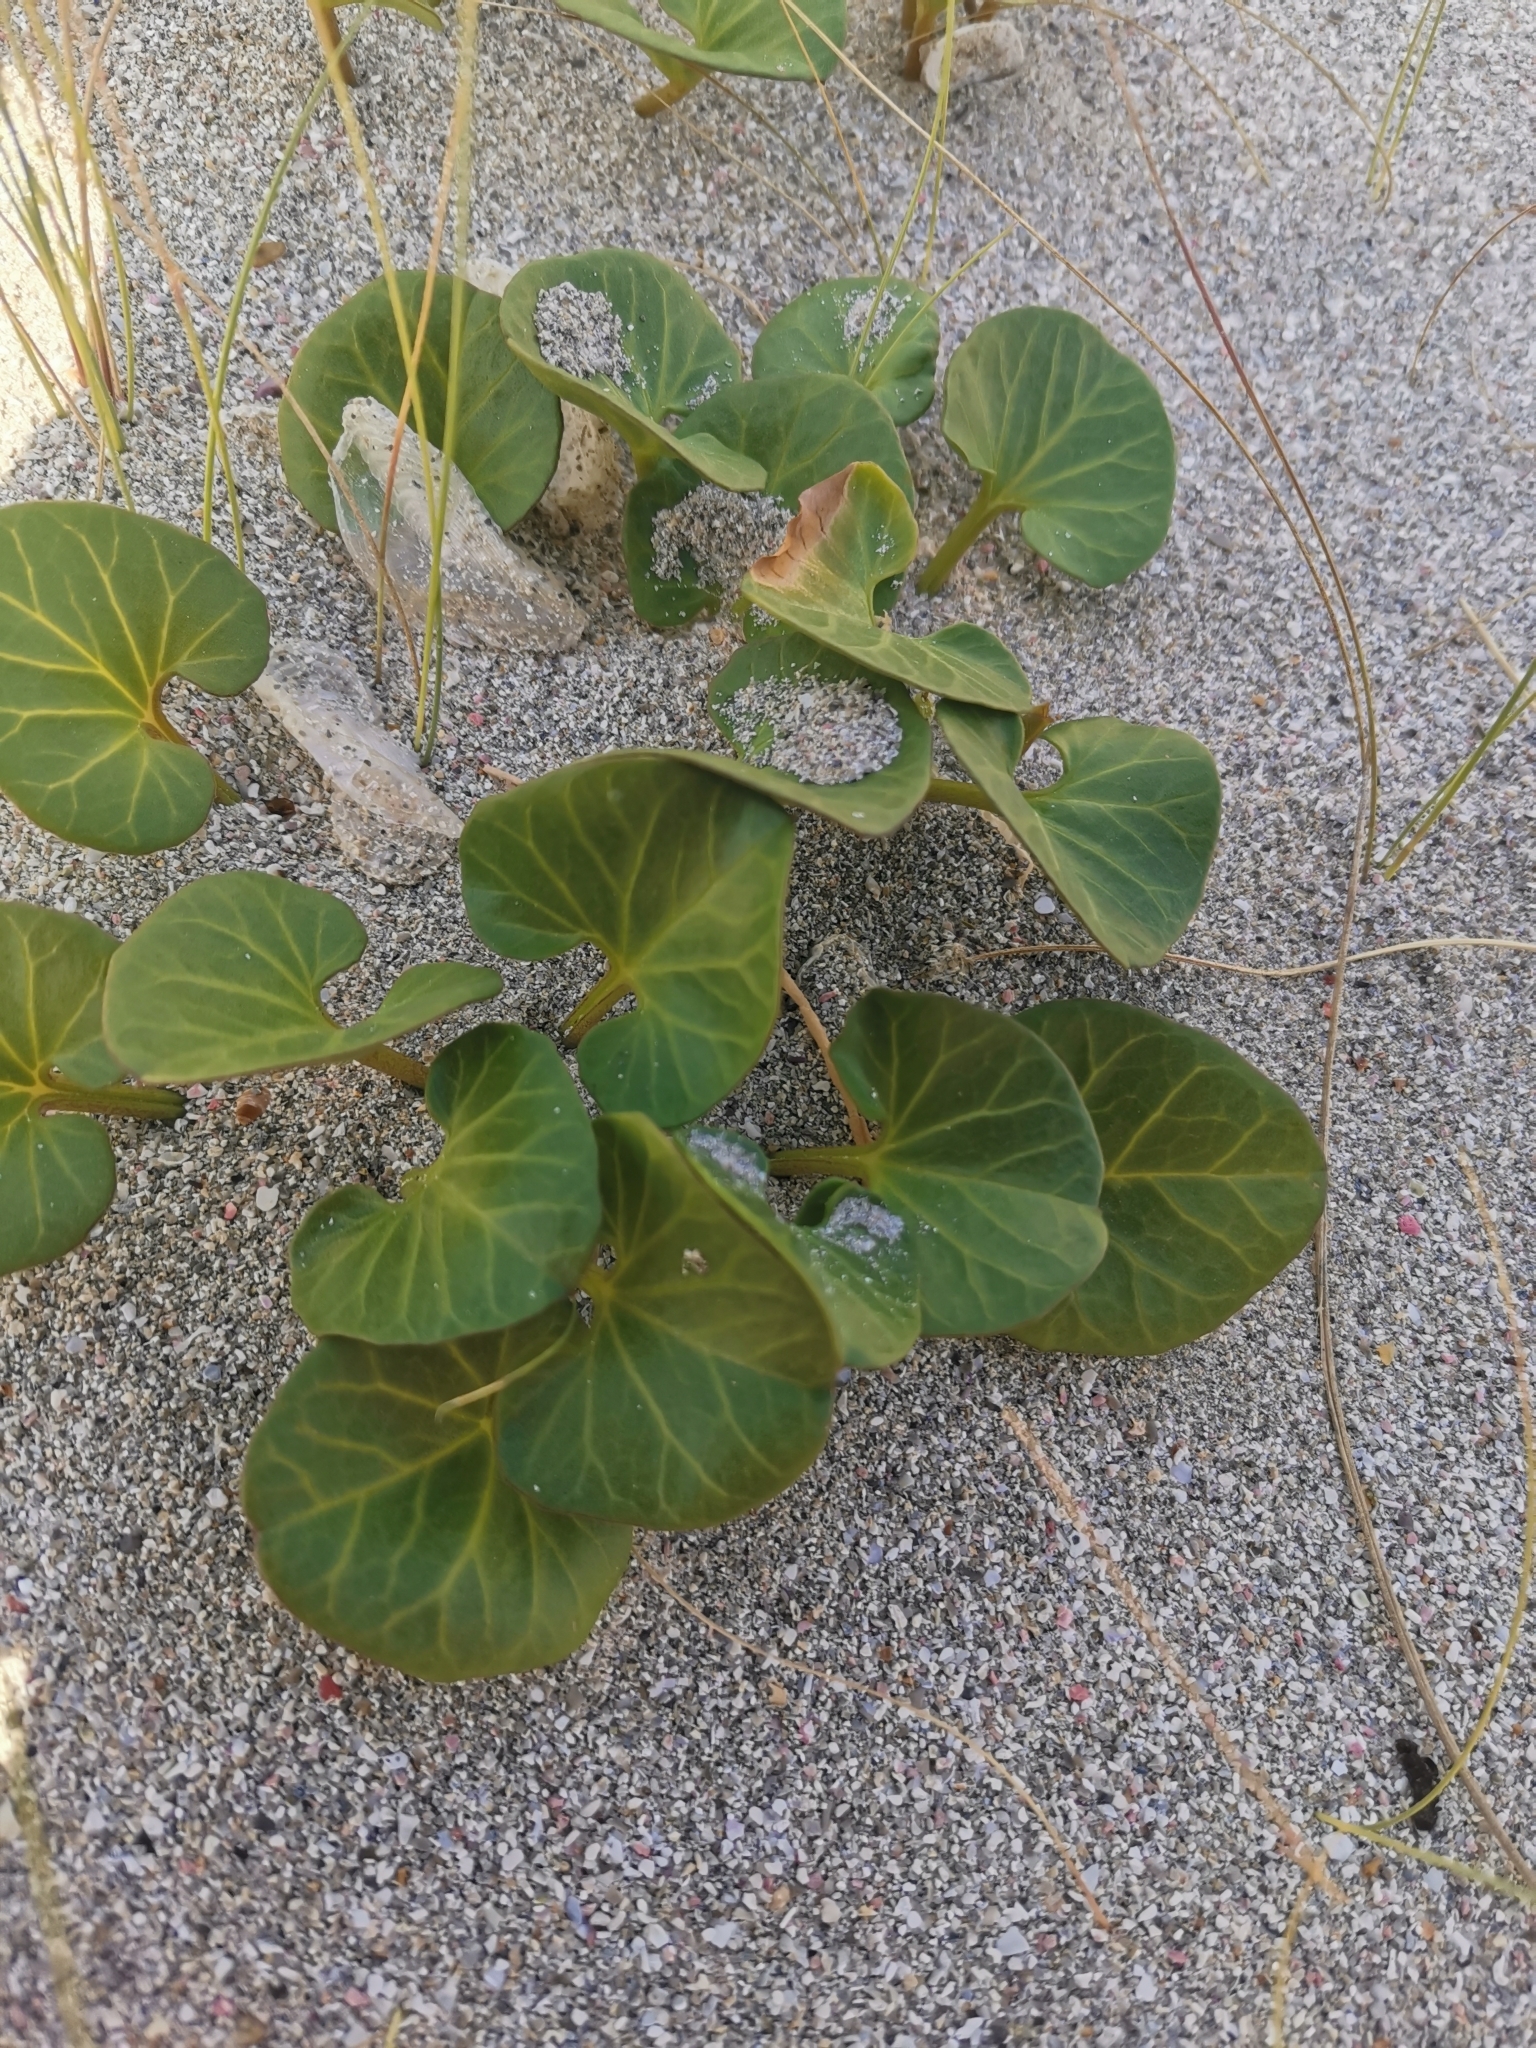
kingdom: Plantae
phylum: Tracheophyta
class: Magnoliopsida
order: Solanales
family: Convolvulaceae
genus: Calystegia
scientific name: Calystegia soldanella
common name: Sea bindweed
